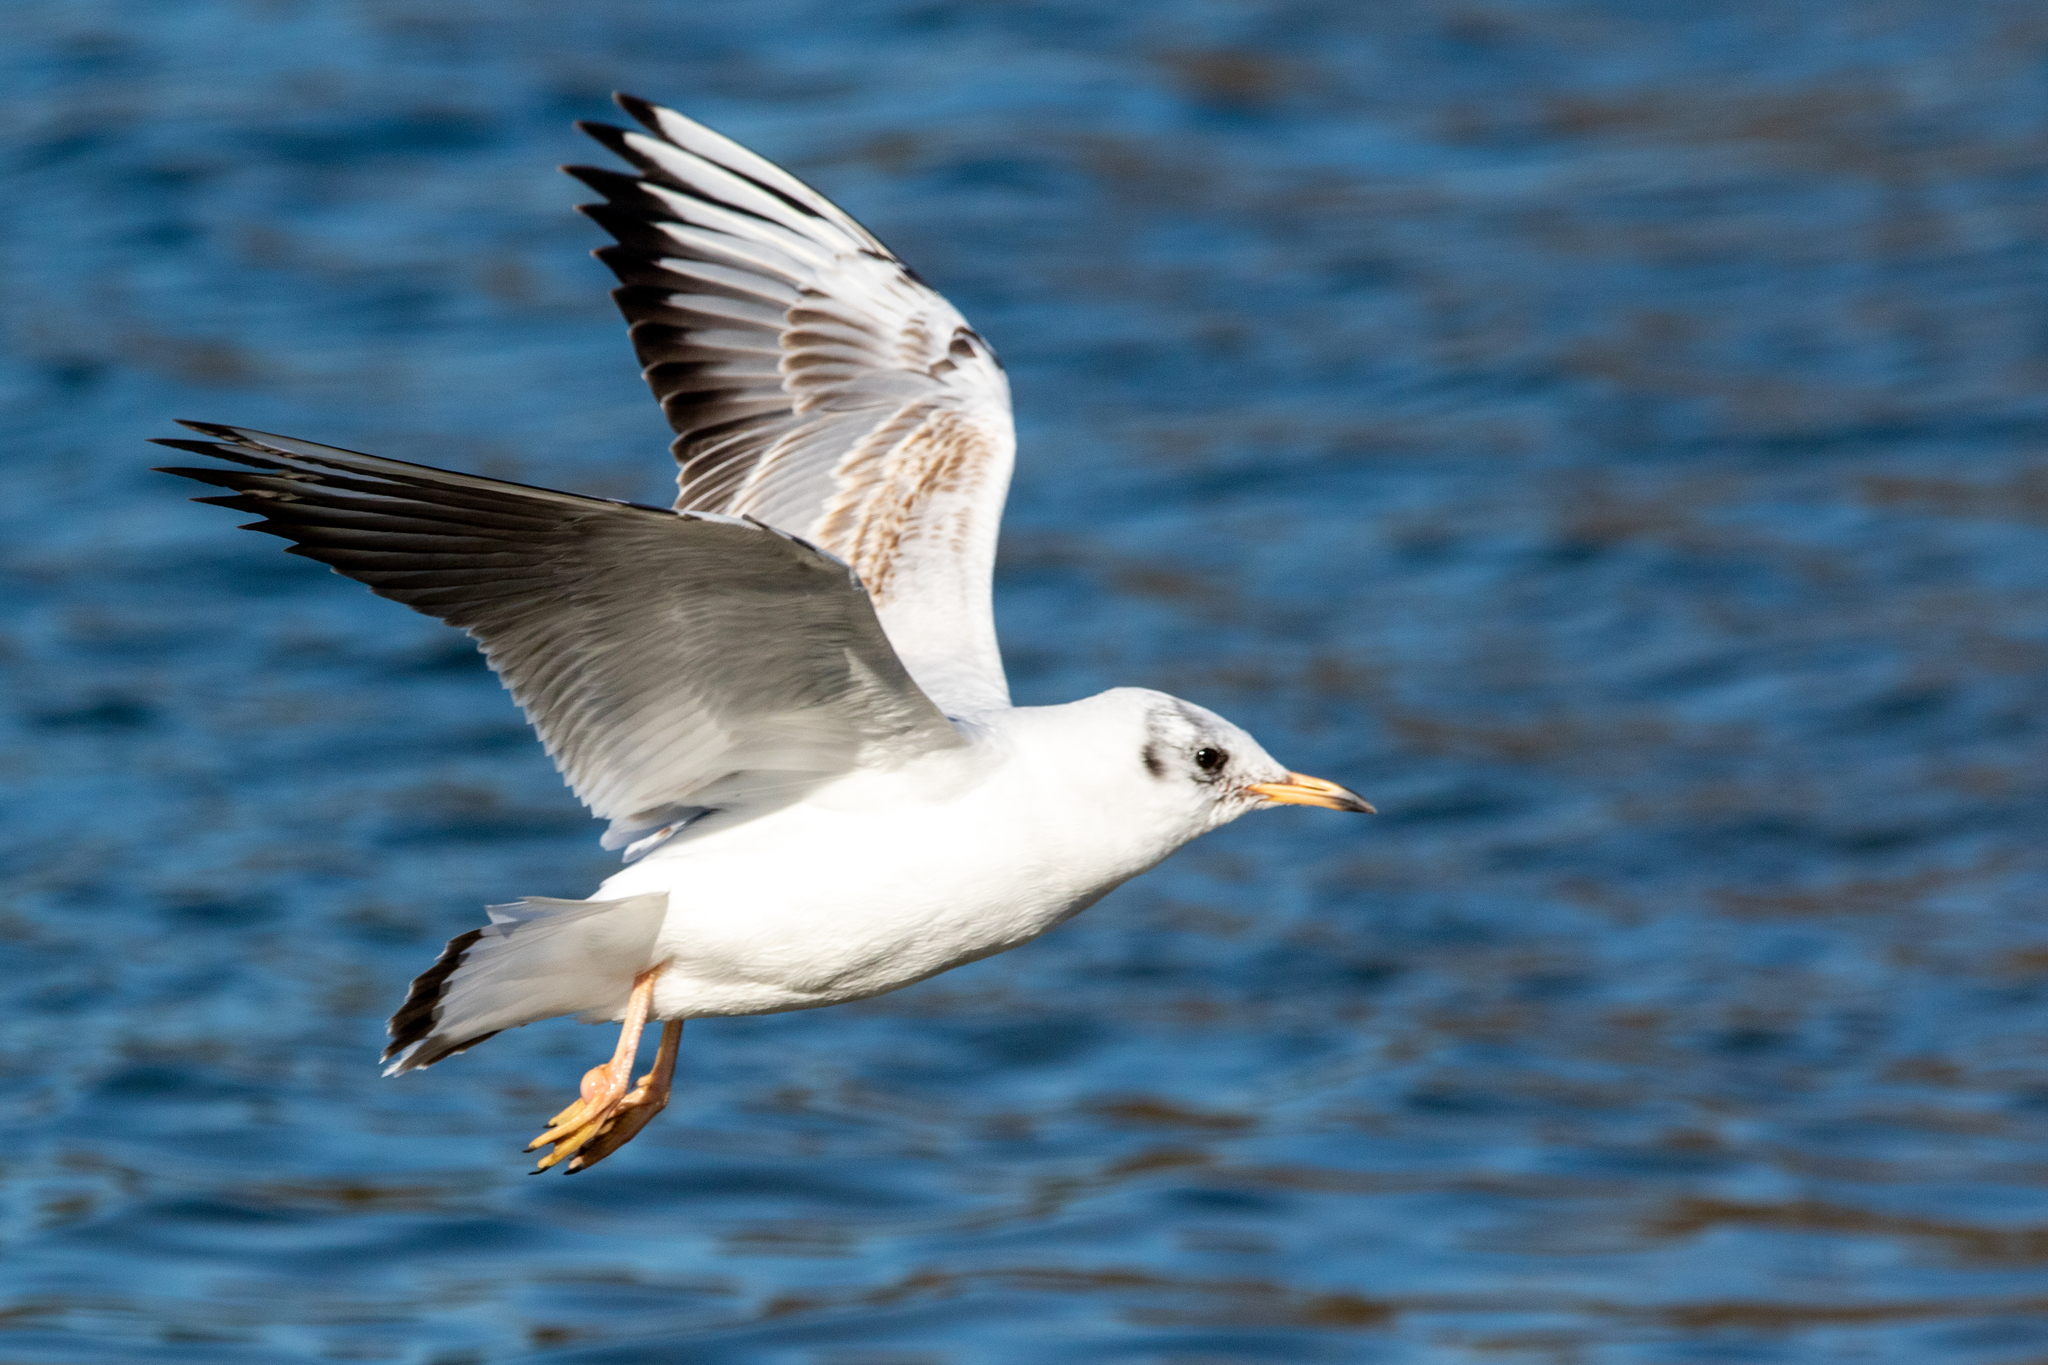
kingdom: Animalia
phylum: Chordata
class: Aves
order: Charadriiformes
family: Laridae
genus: Chroicocephalus
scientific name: Chroicocephalus ridibundus
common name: Black-headed gull
